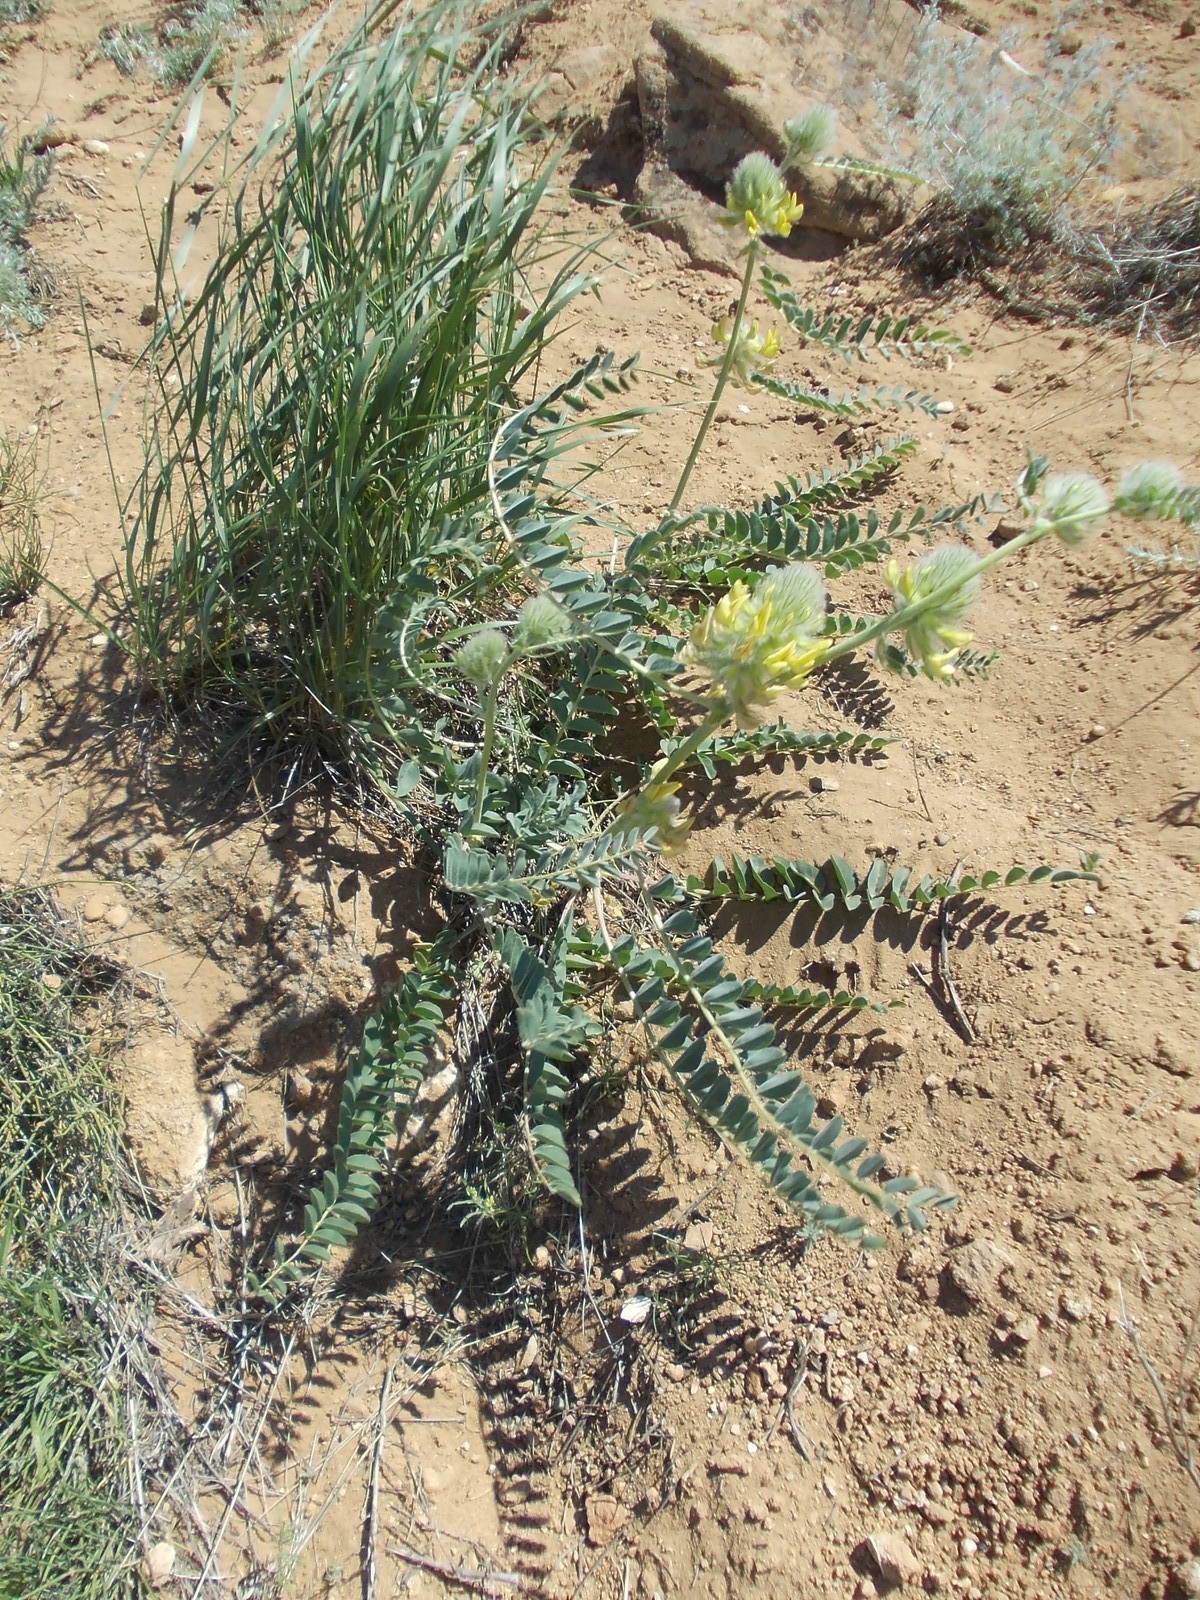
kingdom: Plantae
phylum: Tracheophyta
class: Magnoliopsida
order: Fabales
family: Fabaceae
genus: Astragalus
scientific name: Astragalus vulpinus
